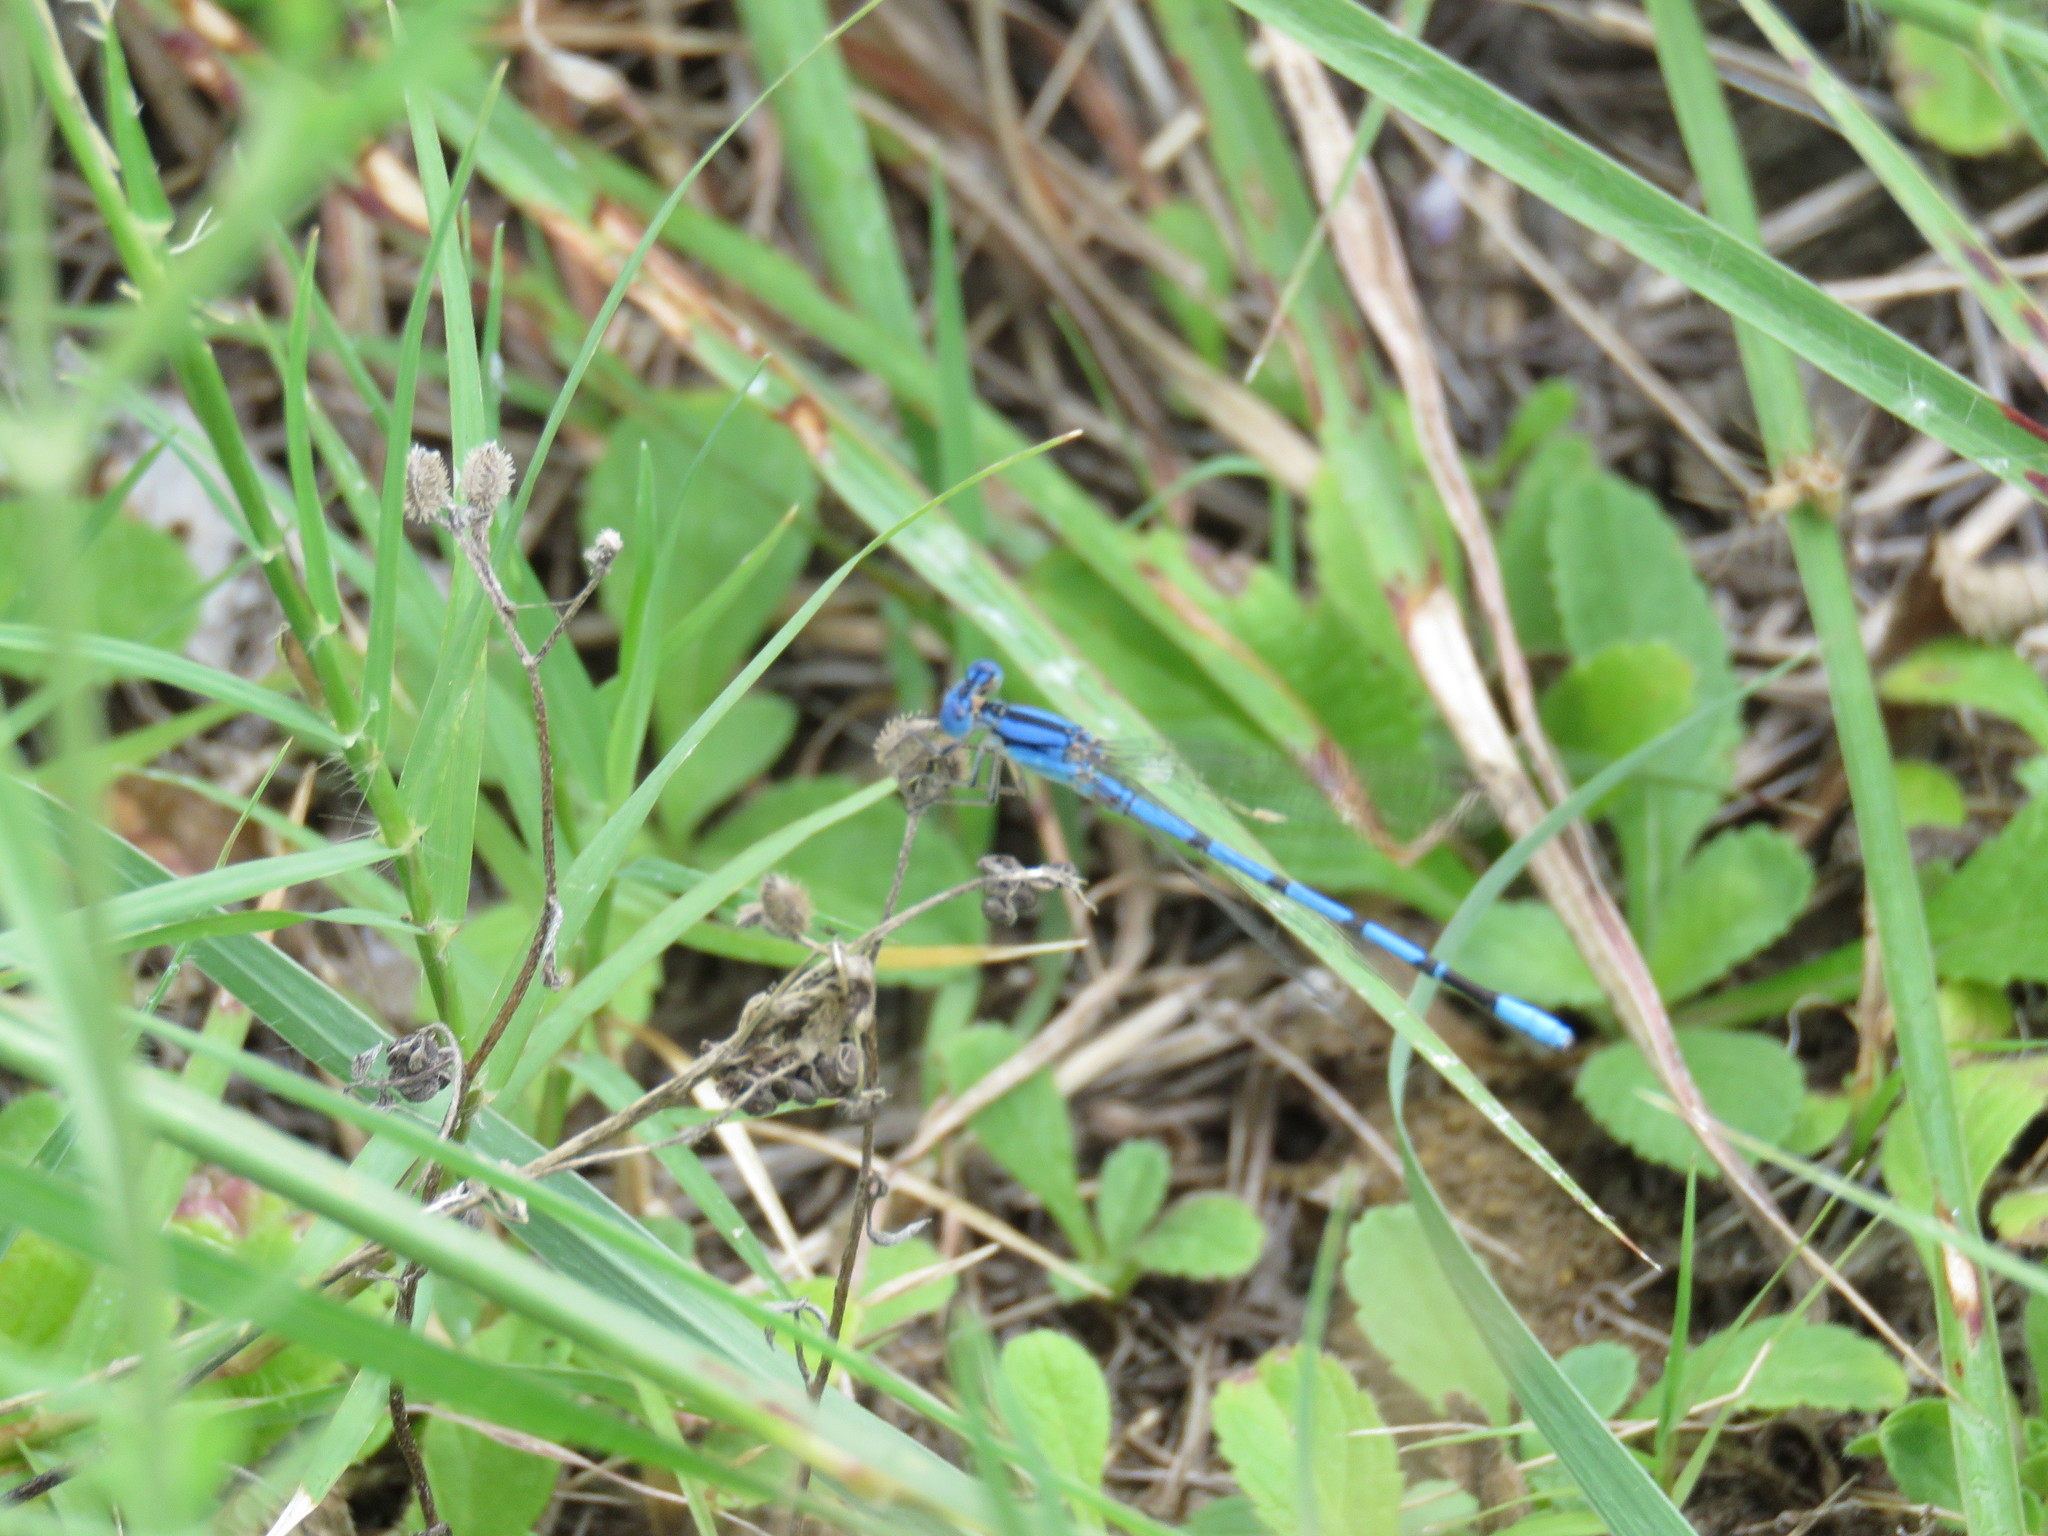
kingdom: Animalia
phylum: Arthropoda
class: Insecta
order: Odonata
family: Coenagrionidae
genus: Argia
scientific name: Argia nahuana
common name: Aztec dancer
